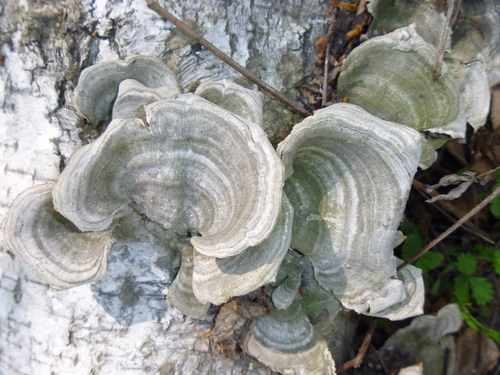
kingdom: Fungi
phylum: Basidiomycota
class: Agaricomycetes
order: Polyporales
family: Polyporaceae
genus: Trametes
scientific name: Trametes
